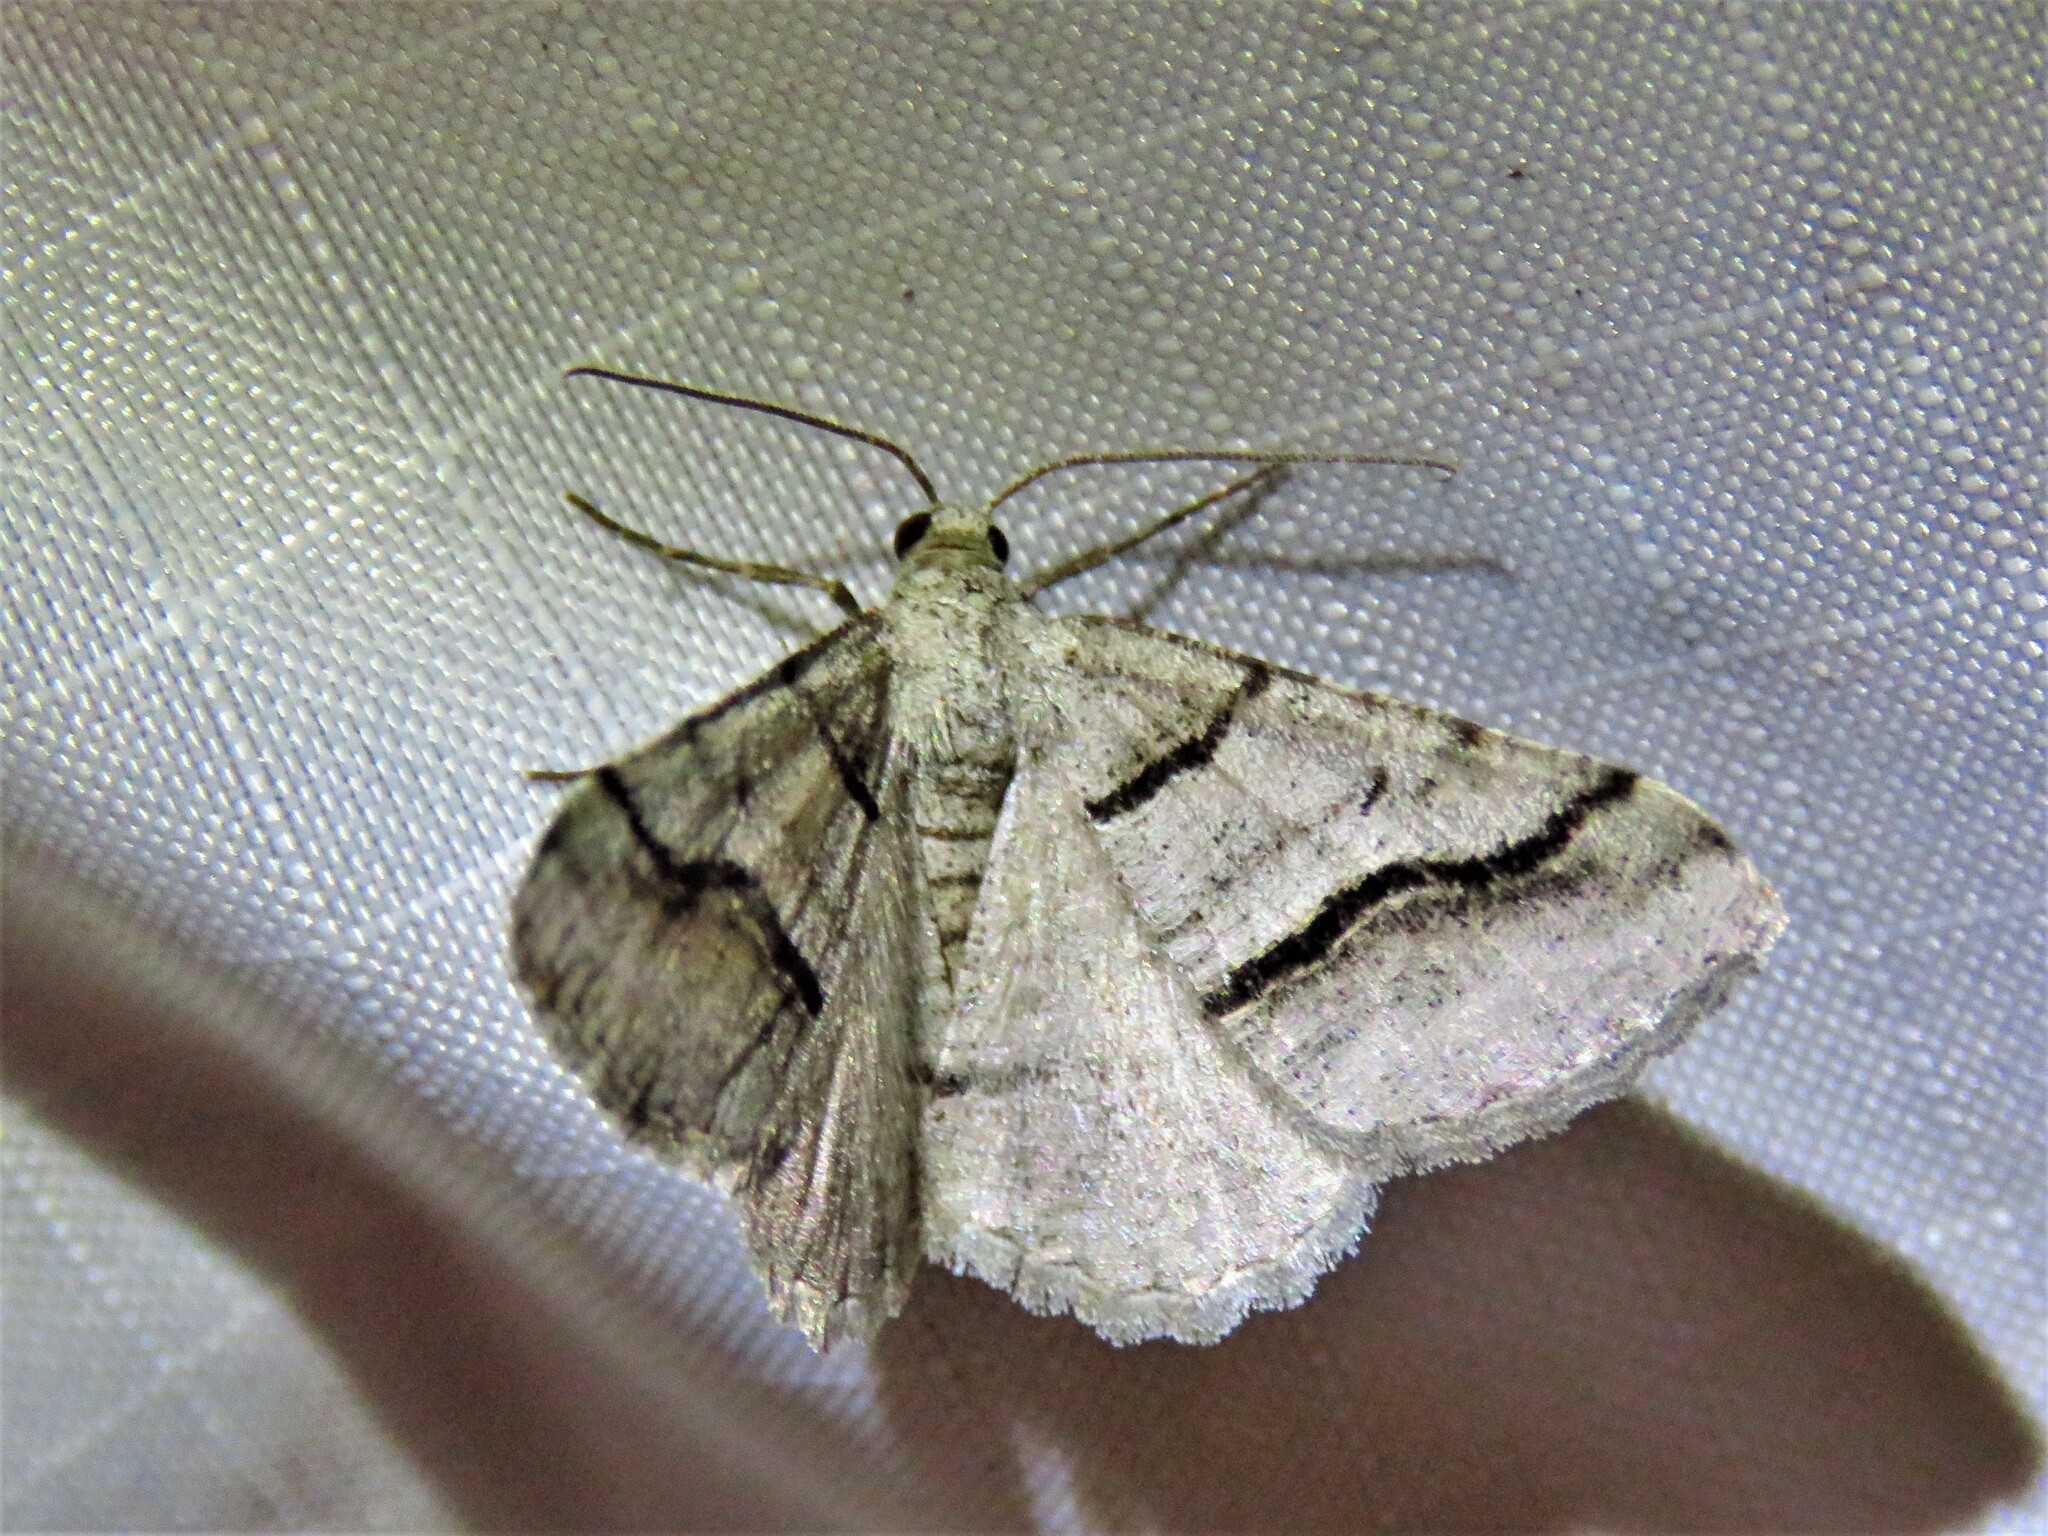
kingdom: Animalia
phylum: Arthropoda
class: Insecta
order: Lepidoptera
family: Geometridae
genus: Digrammia
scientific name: Digrammia continuata
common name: Curve-lined angle
